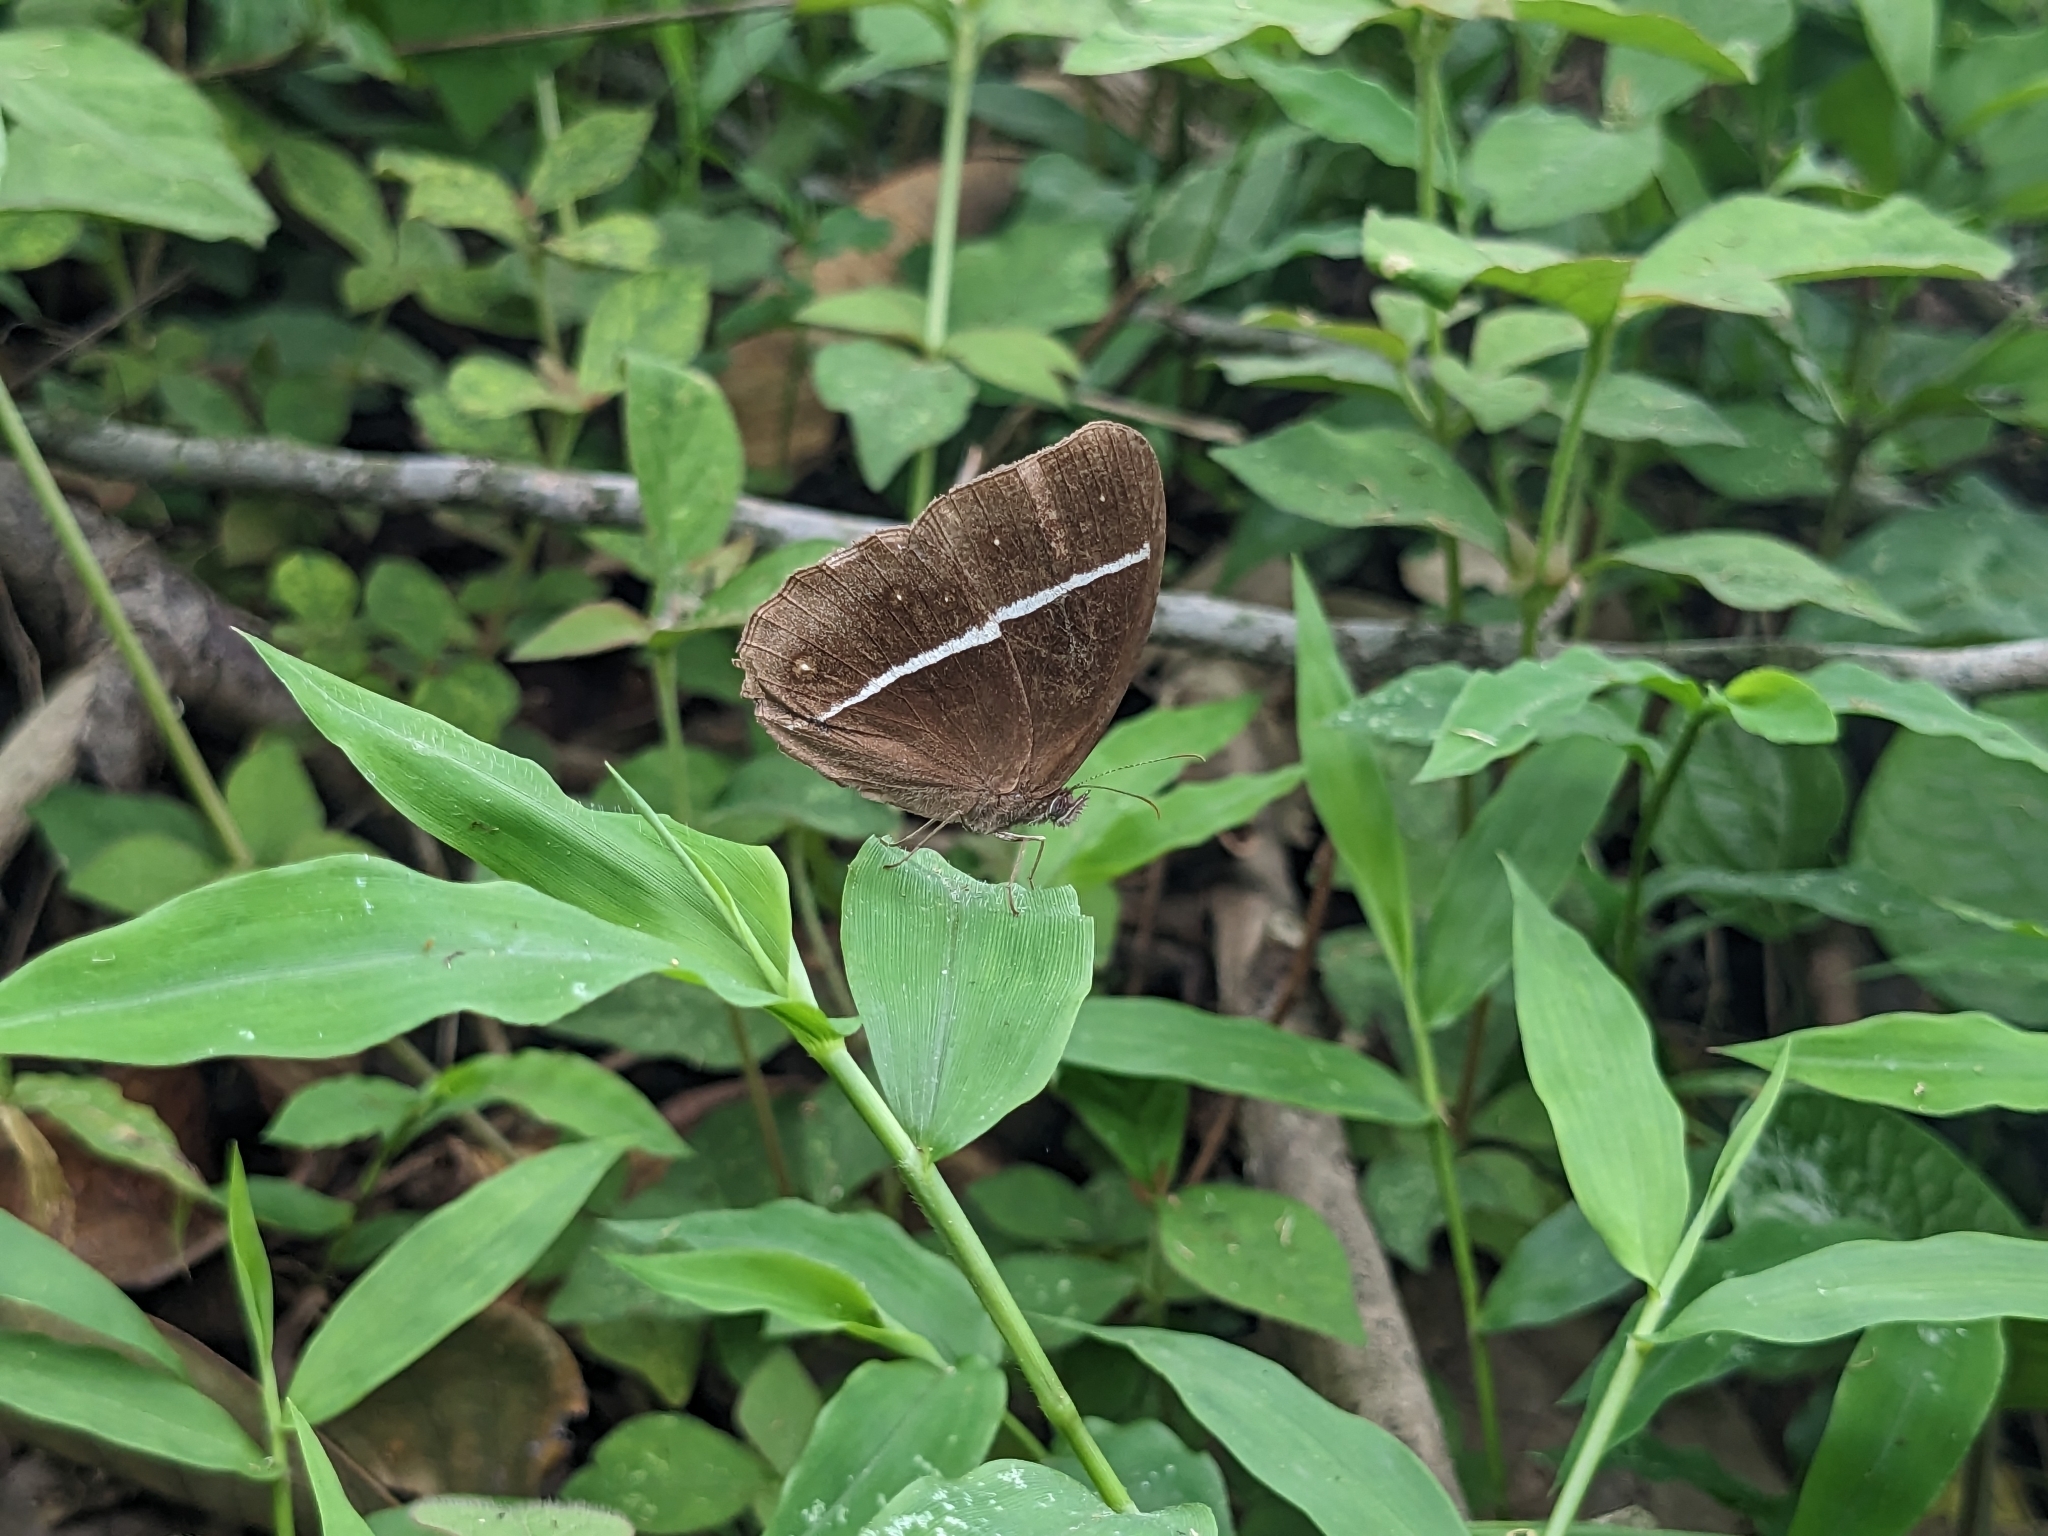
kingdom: Animalia
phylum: Arthropoda
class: Insecta
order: Lepidoptera
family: Nymphalidae
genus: Orsotriaena
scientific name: Orsotriaena medus
